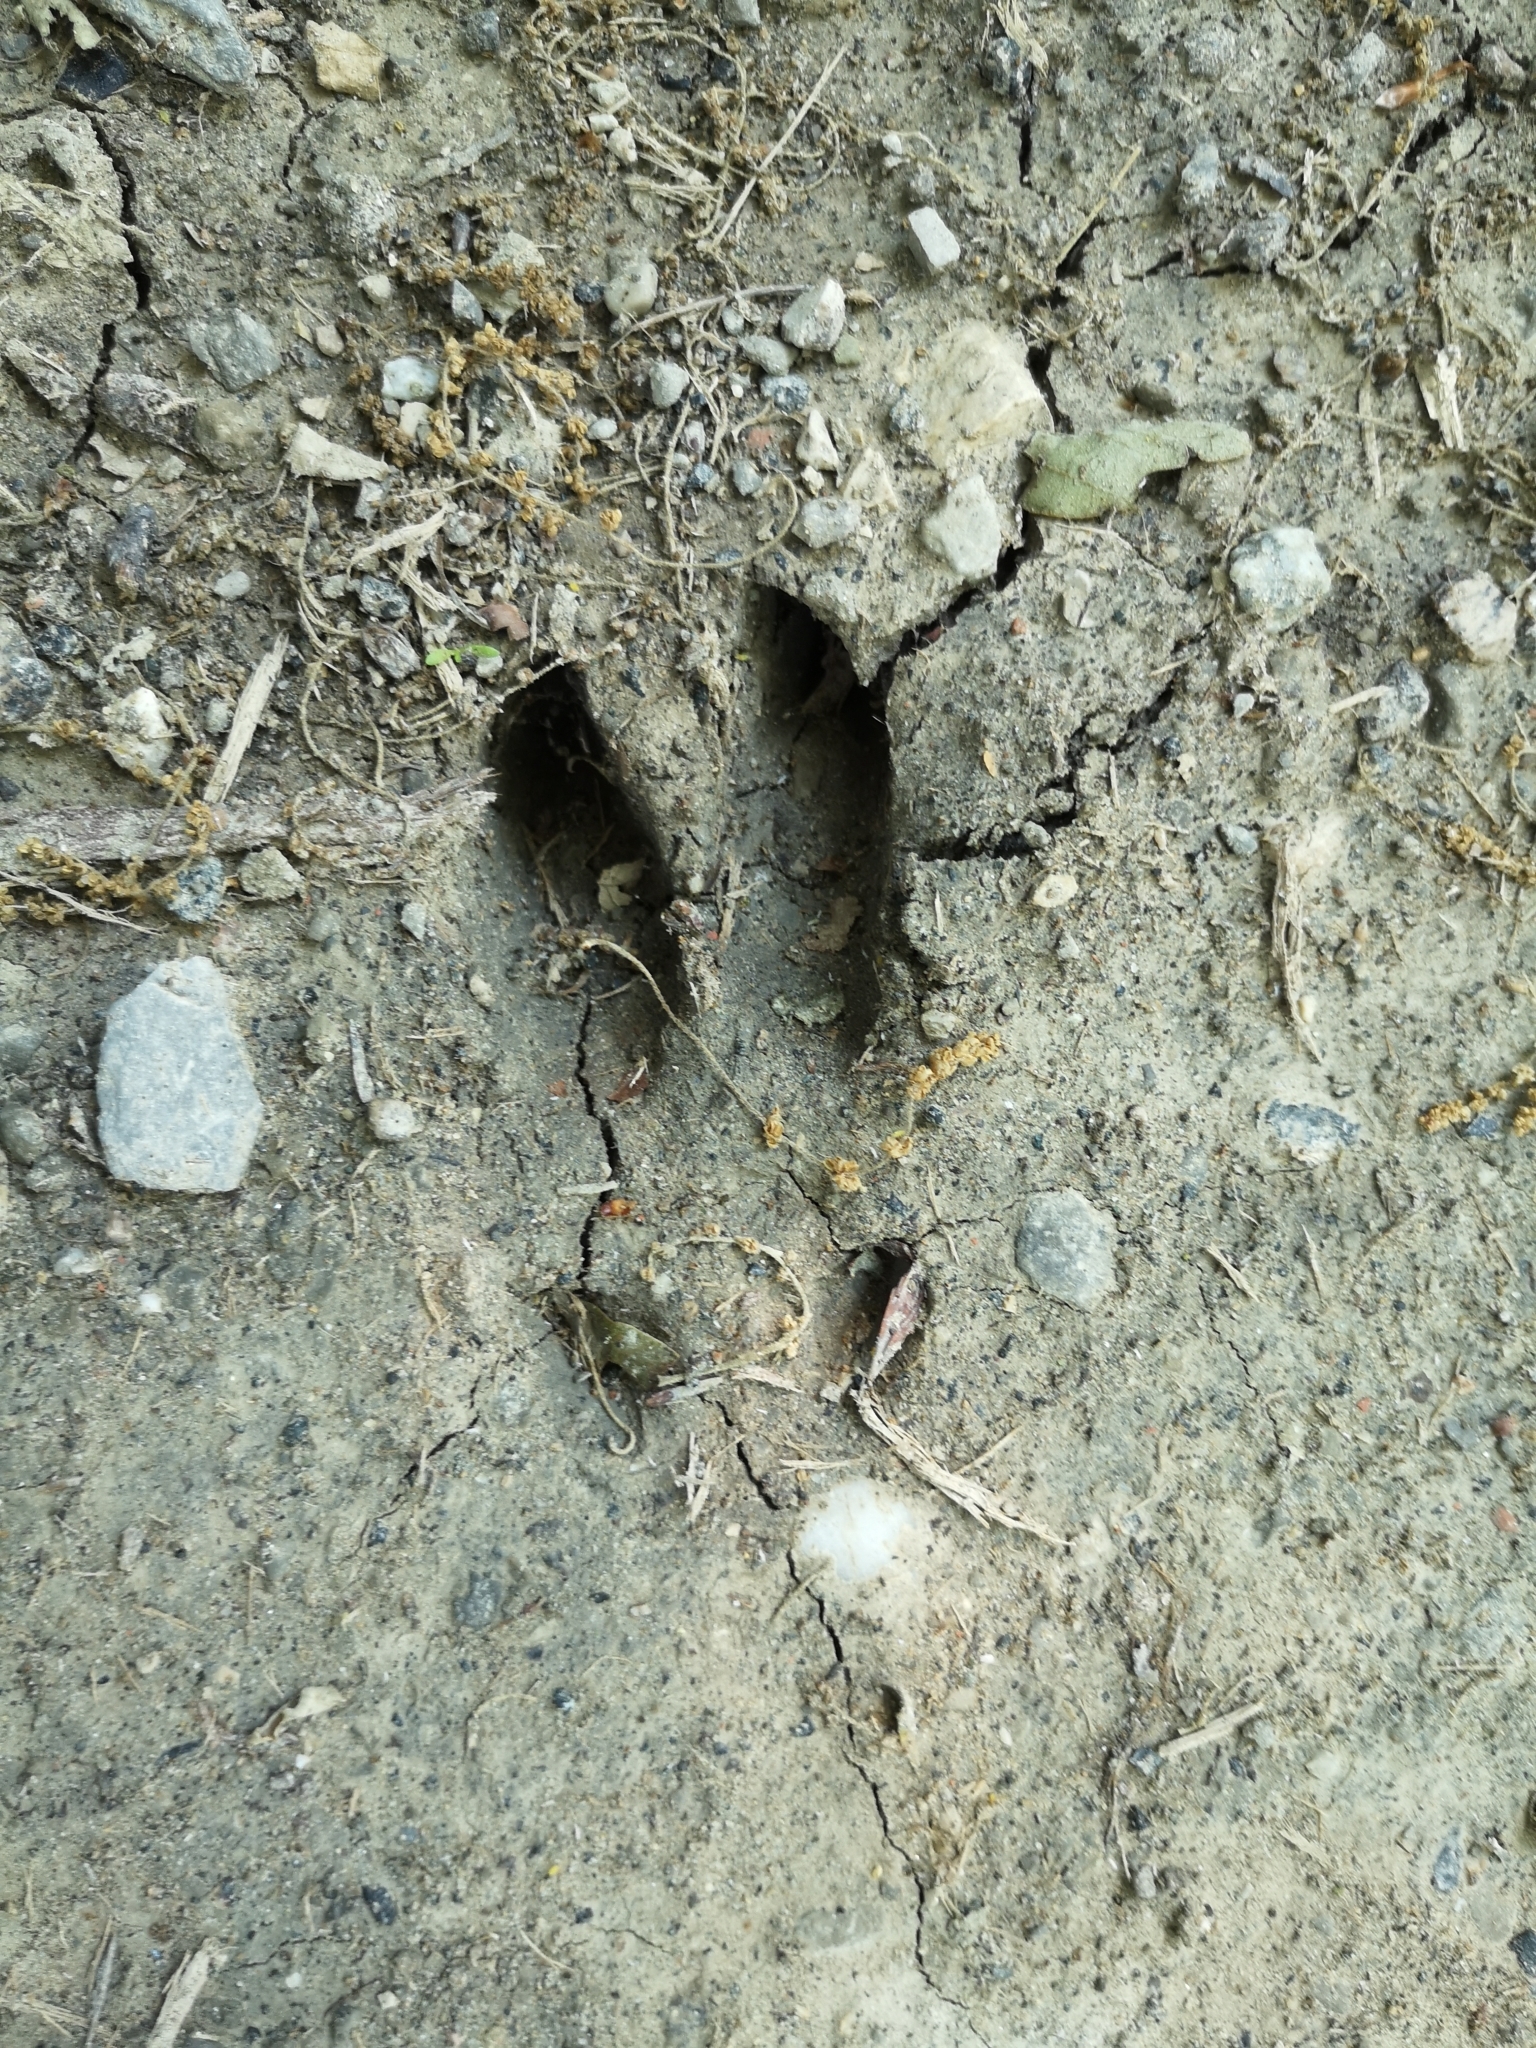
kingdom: Animalia
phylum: Chordata
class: Mammalia
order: Artiodactyla
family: Suidae
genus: Sus
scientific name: Sus scrofa
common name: Wild boar
